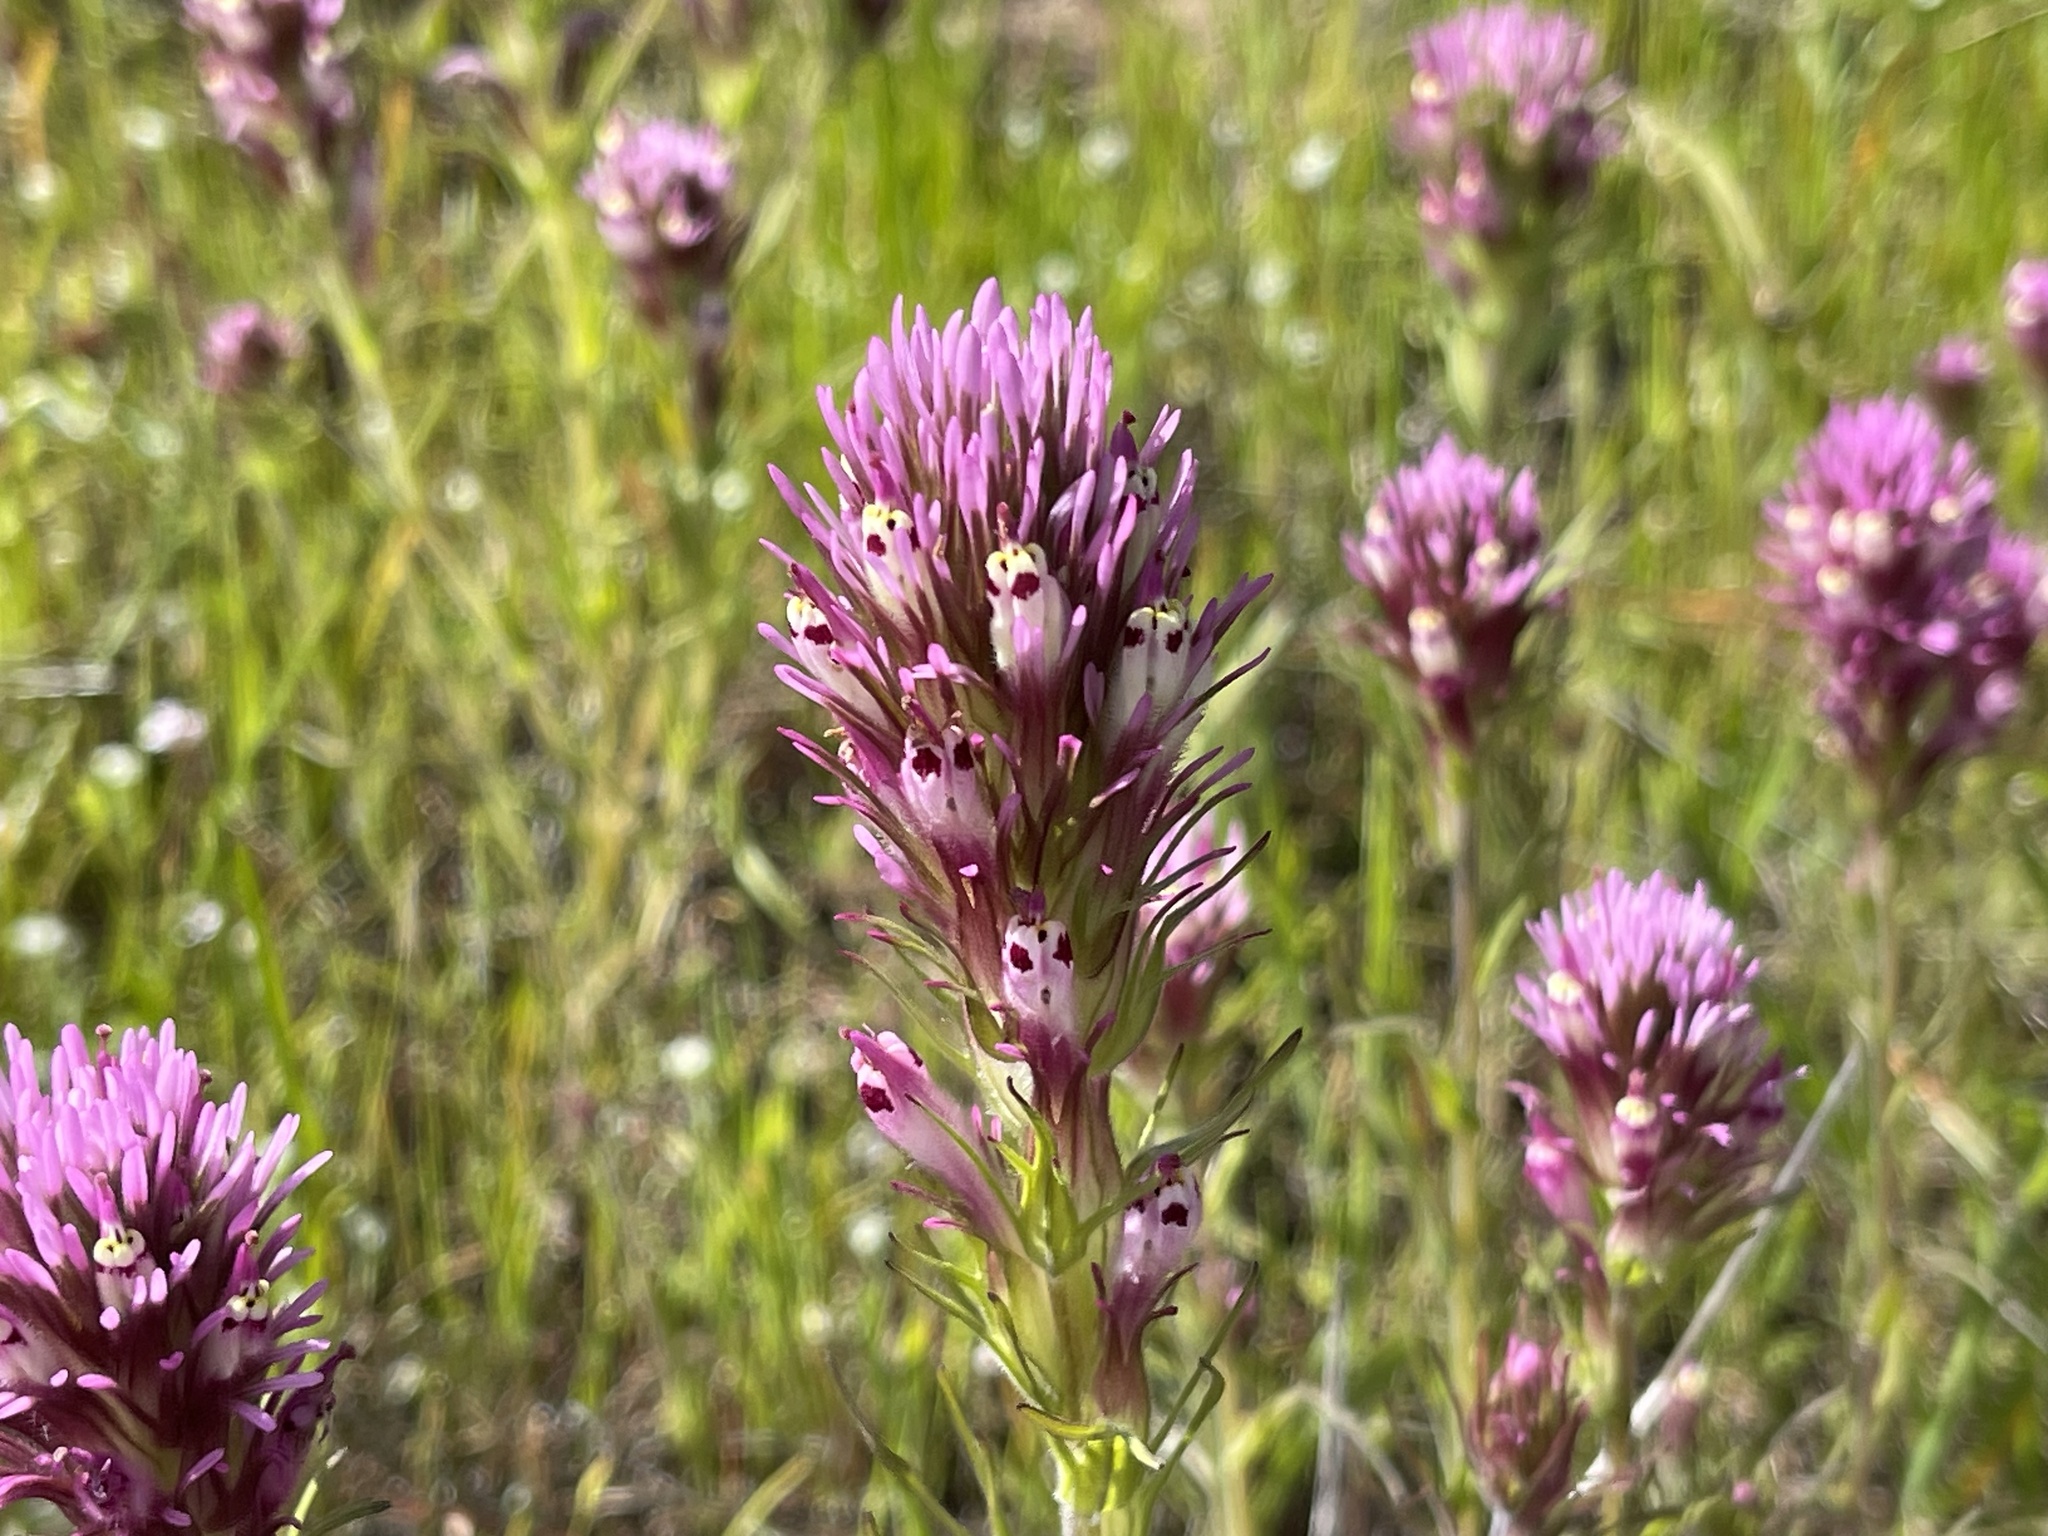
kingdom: Plantae
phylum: Tracheophyta
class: Magnoliopsida
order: Lamiales
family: Orobanchaceae
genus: Castilleja
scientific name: Castilleja exserta
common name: Purple owl-clover
